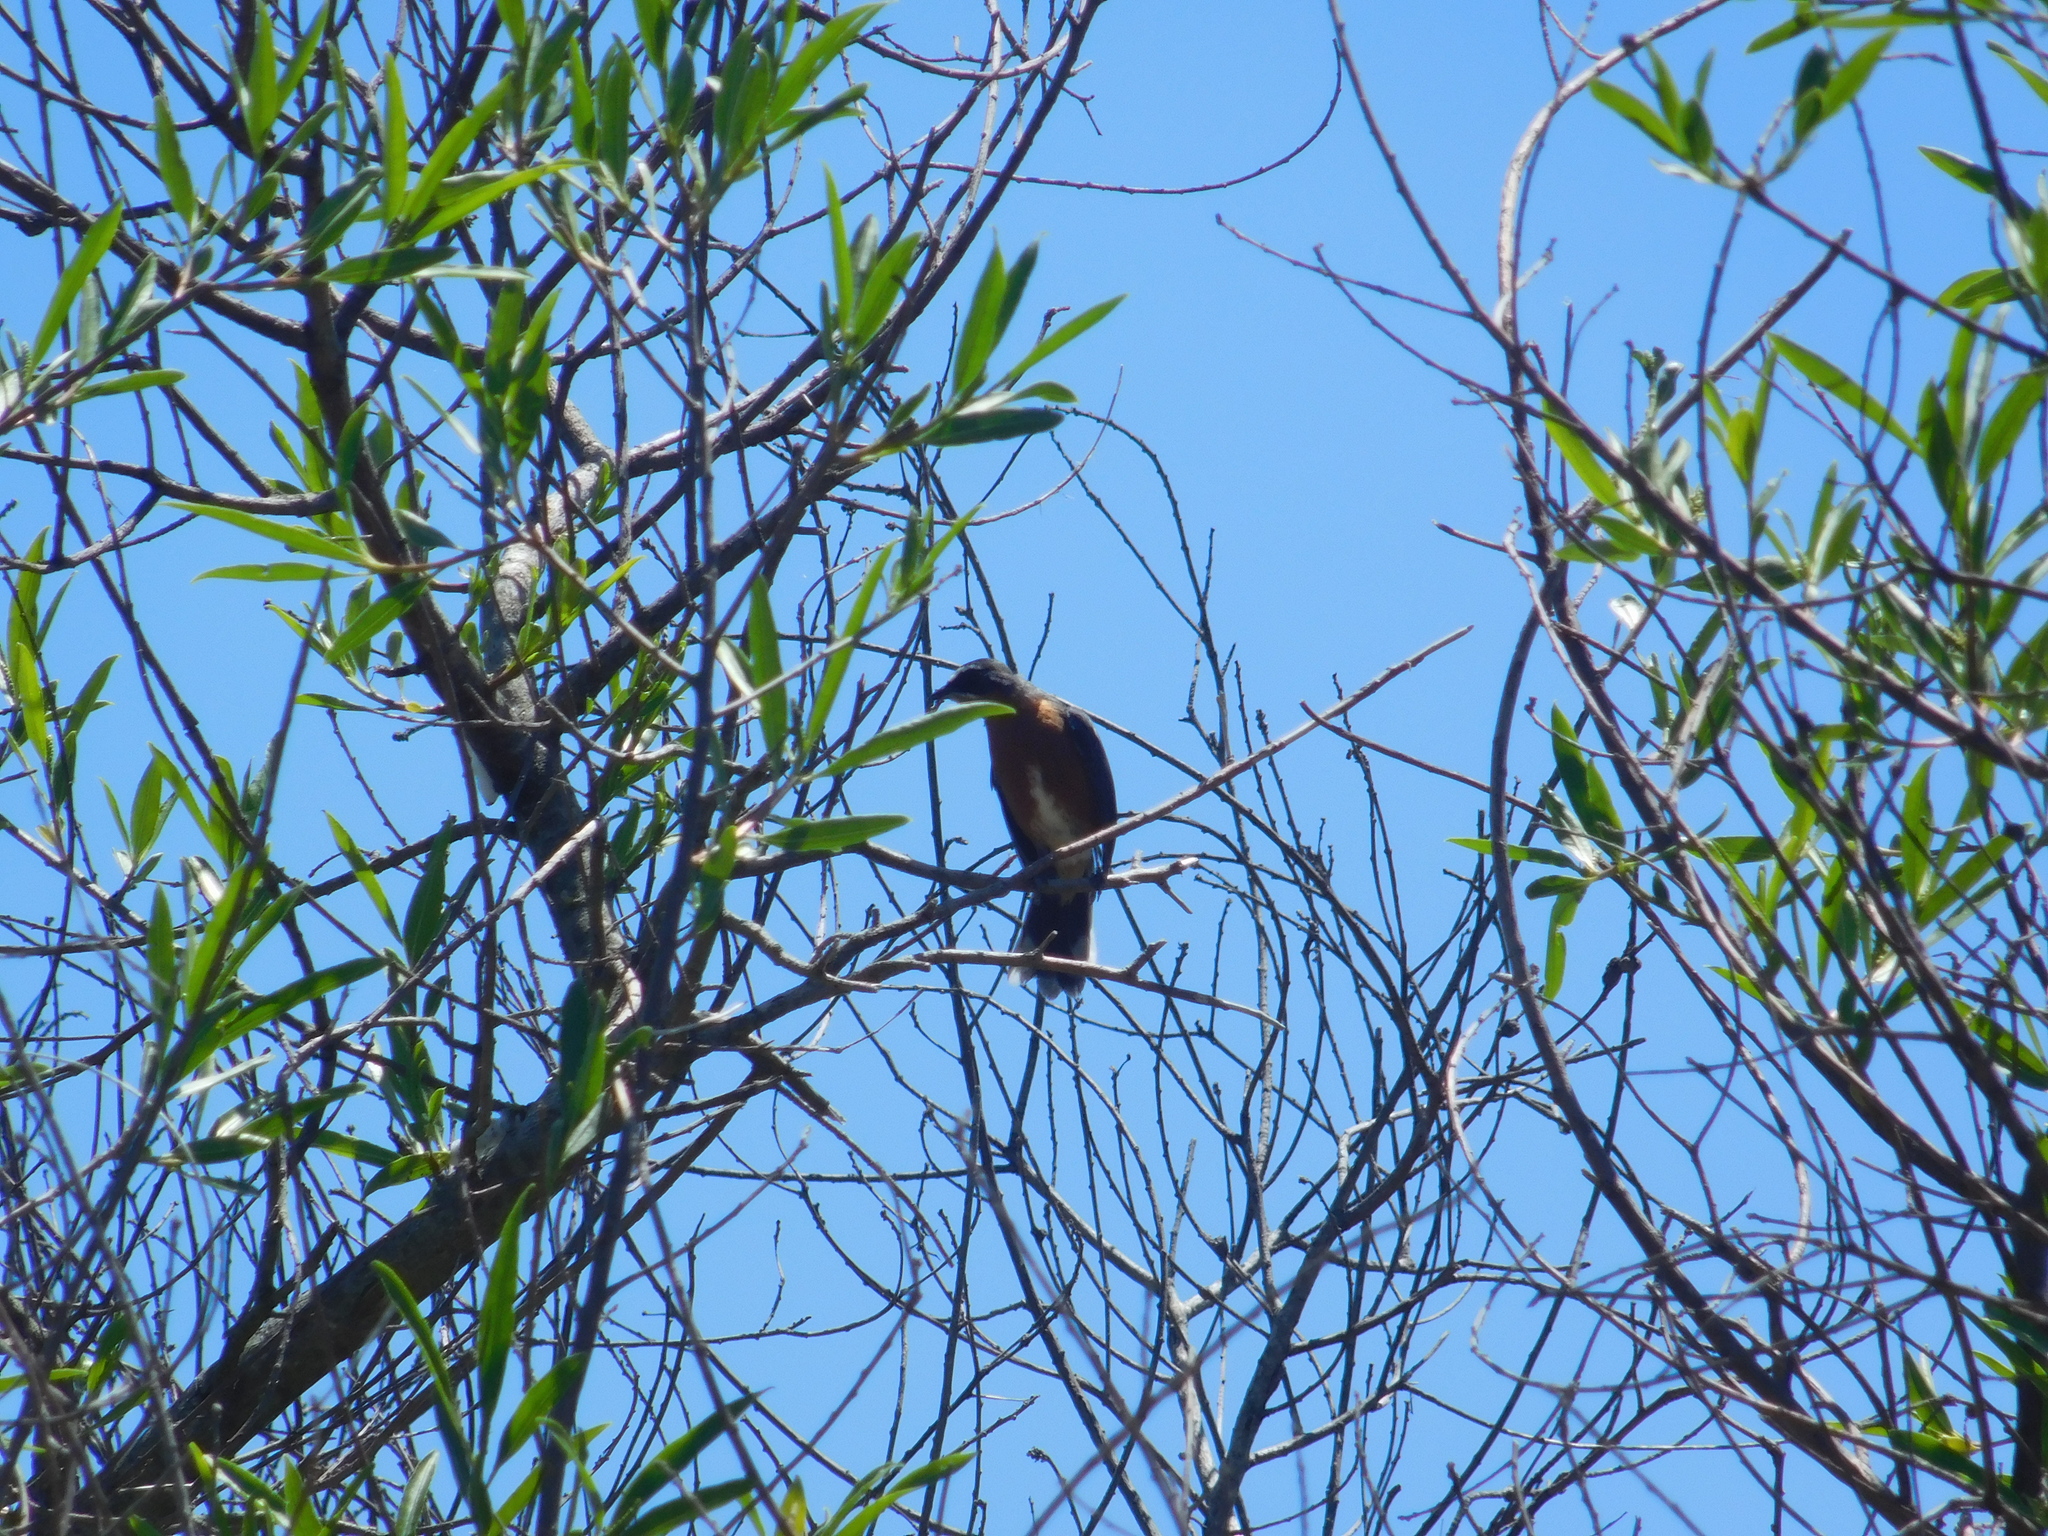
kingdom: Animalia
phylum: Chordata
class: Aves
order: Passeriformes
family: Thraupidae
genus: Poospiza
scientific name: Poospiza nigrorufa
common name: Black-and-rufous warbling finch
